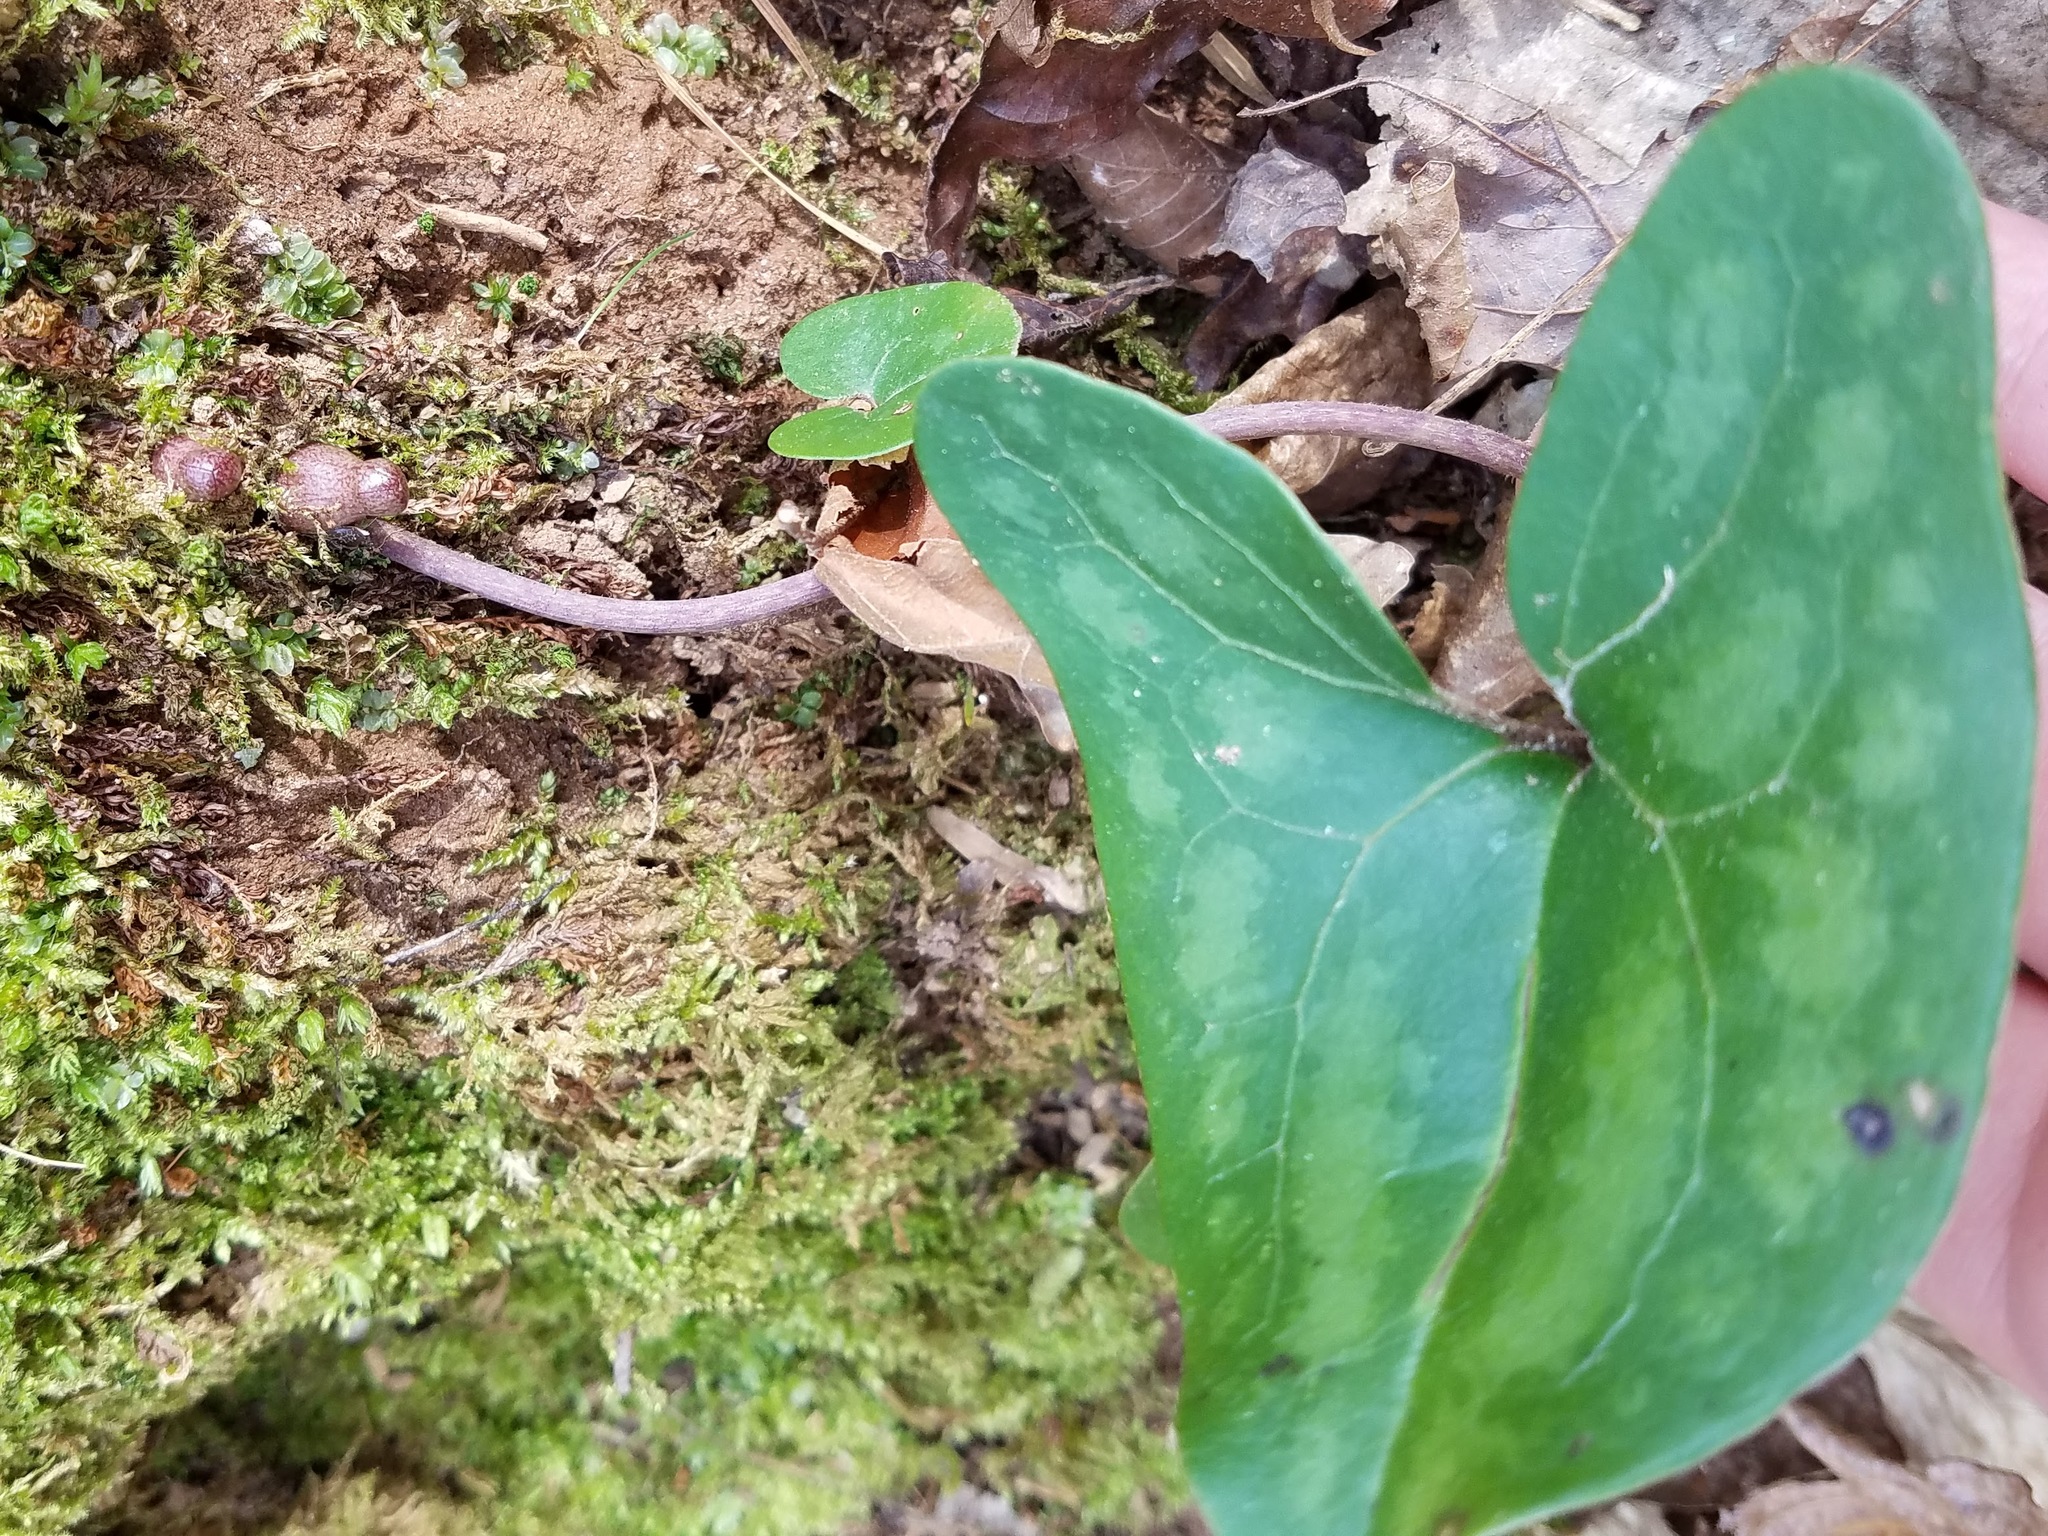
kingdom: Plantae
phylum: Tracheophyta
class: Magnoliopsida
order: Piperales
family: Aristolochiaceae
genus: Hexastylis
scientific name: Hexastylis arifolia
